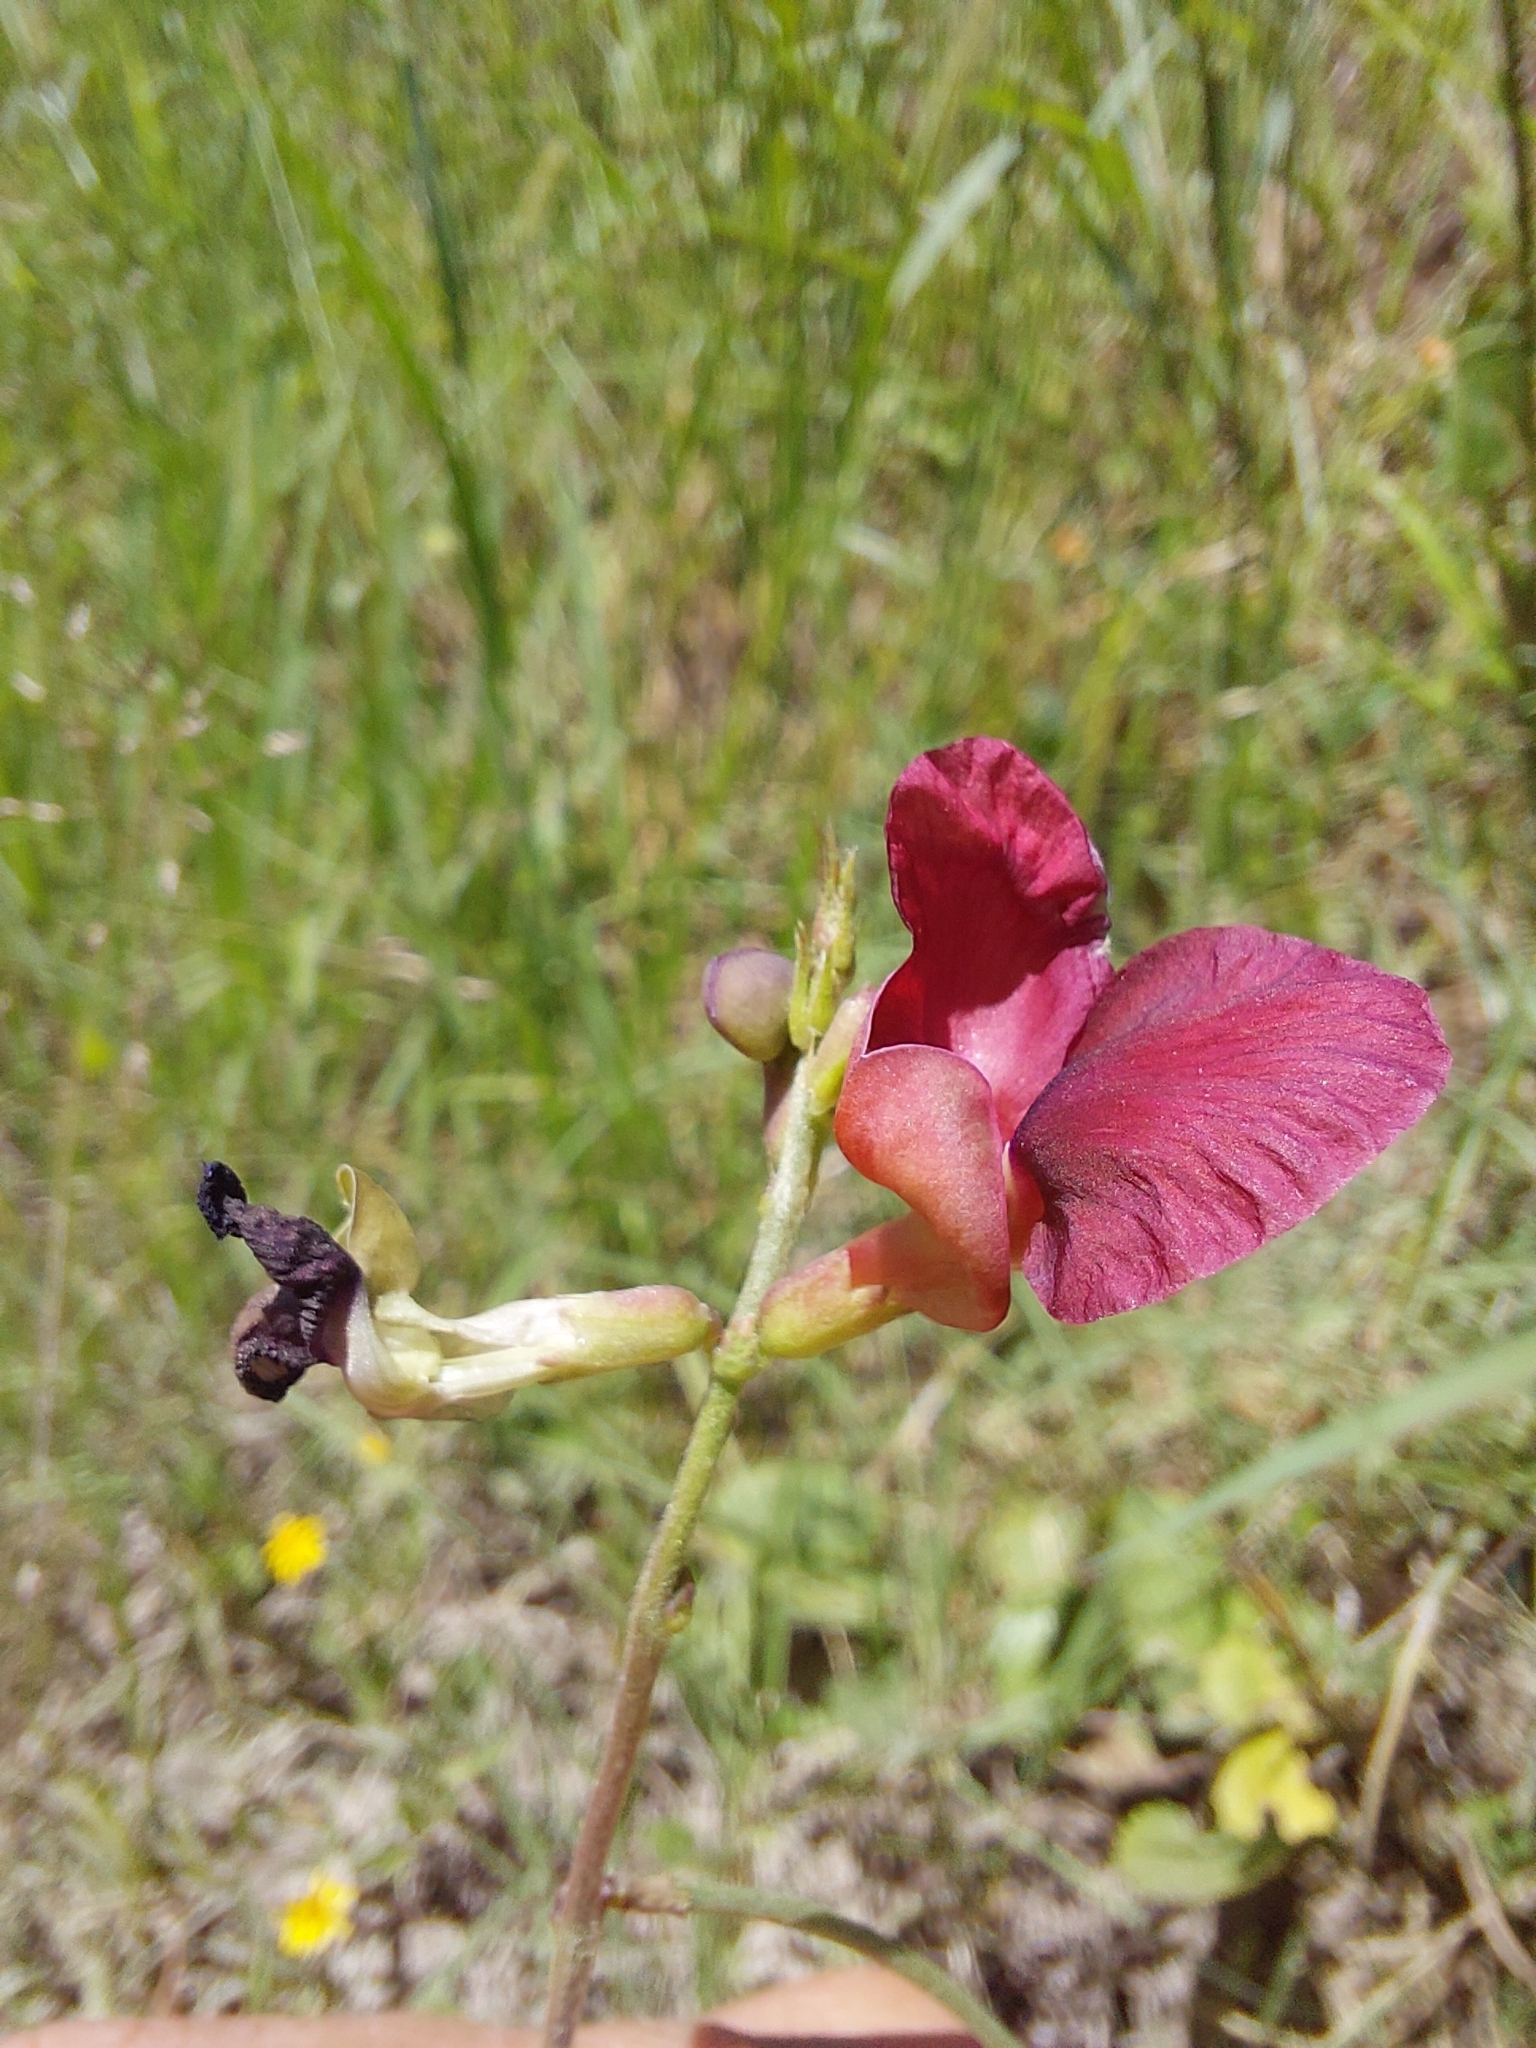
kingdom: Plantae
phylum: Tracheophyta
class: Magnoliopsida
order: Fabales
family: Fabaceae
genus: Macroptilium
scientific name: Macroptilium lathyroides
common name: Wild bushbean
